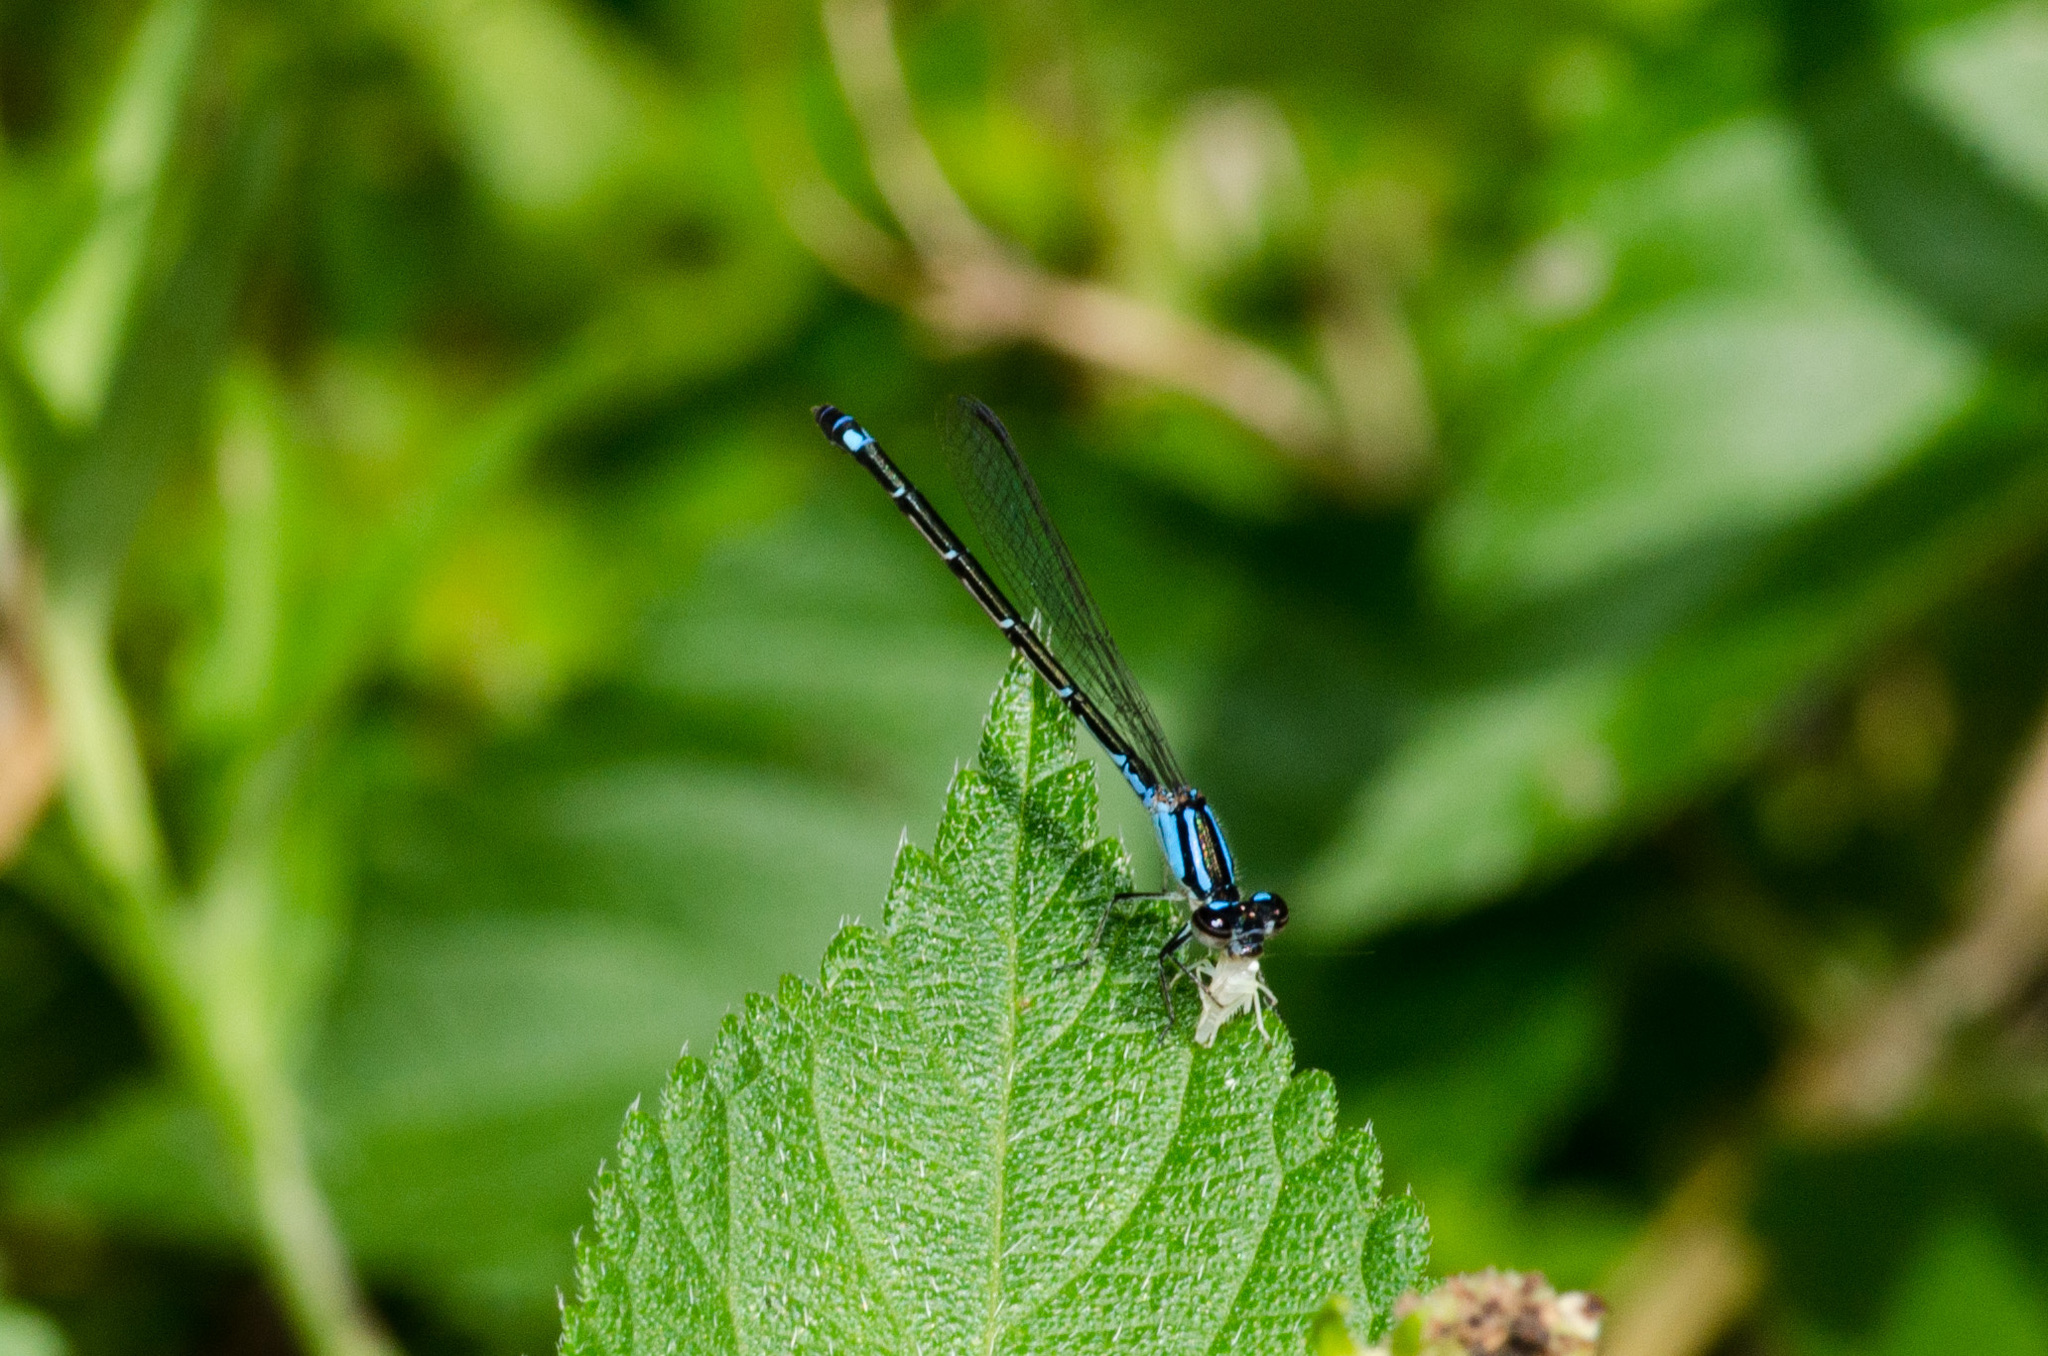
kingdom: Animalia
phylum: Arthropoda
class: Insecta
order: Odonata
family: Coenagrionidae
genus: Enallagma
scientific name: Enallagma geminatum
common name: Skimming bluet
